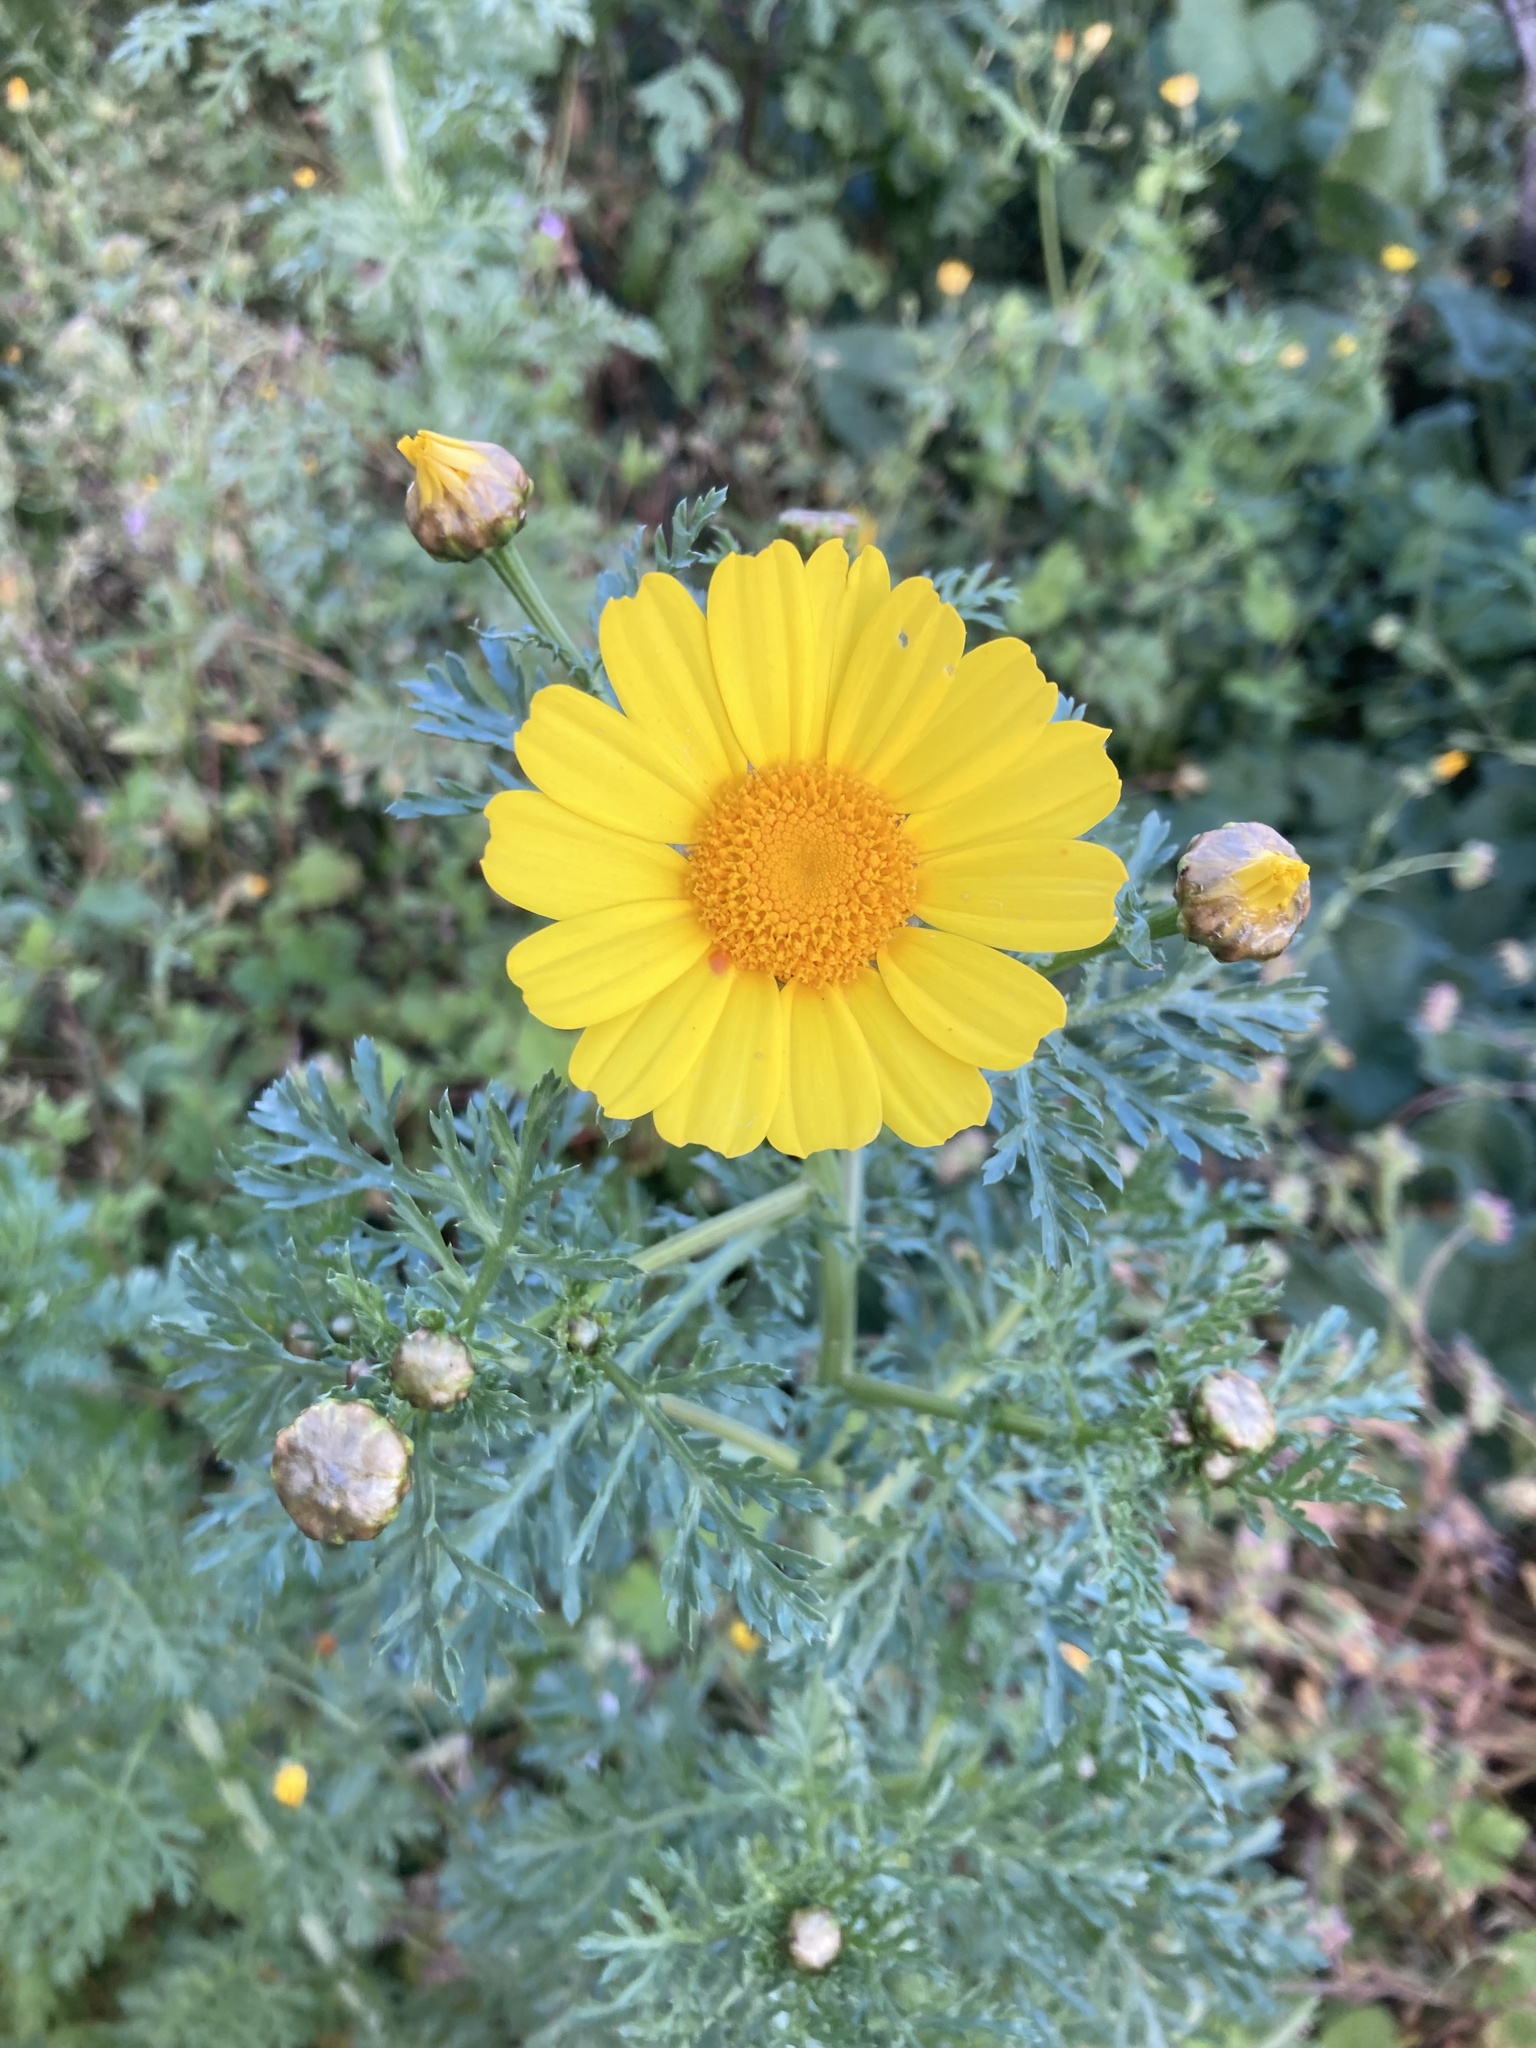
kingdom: Plantae
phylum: Tracheophyta
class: Magnoliopsida
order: Asterales
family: Asteraceae
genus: Glebionis
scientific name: Glebionis coronaria
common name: Crowndaisy
